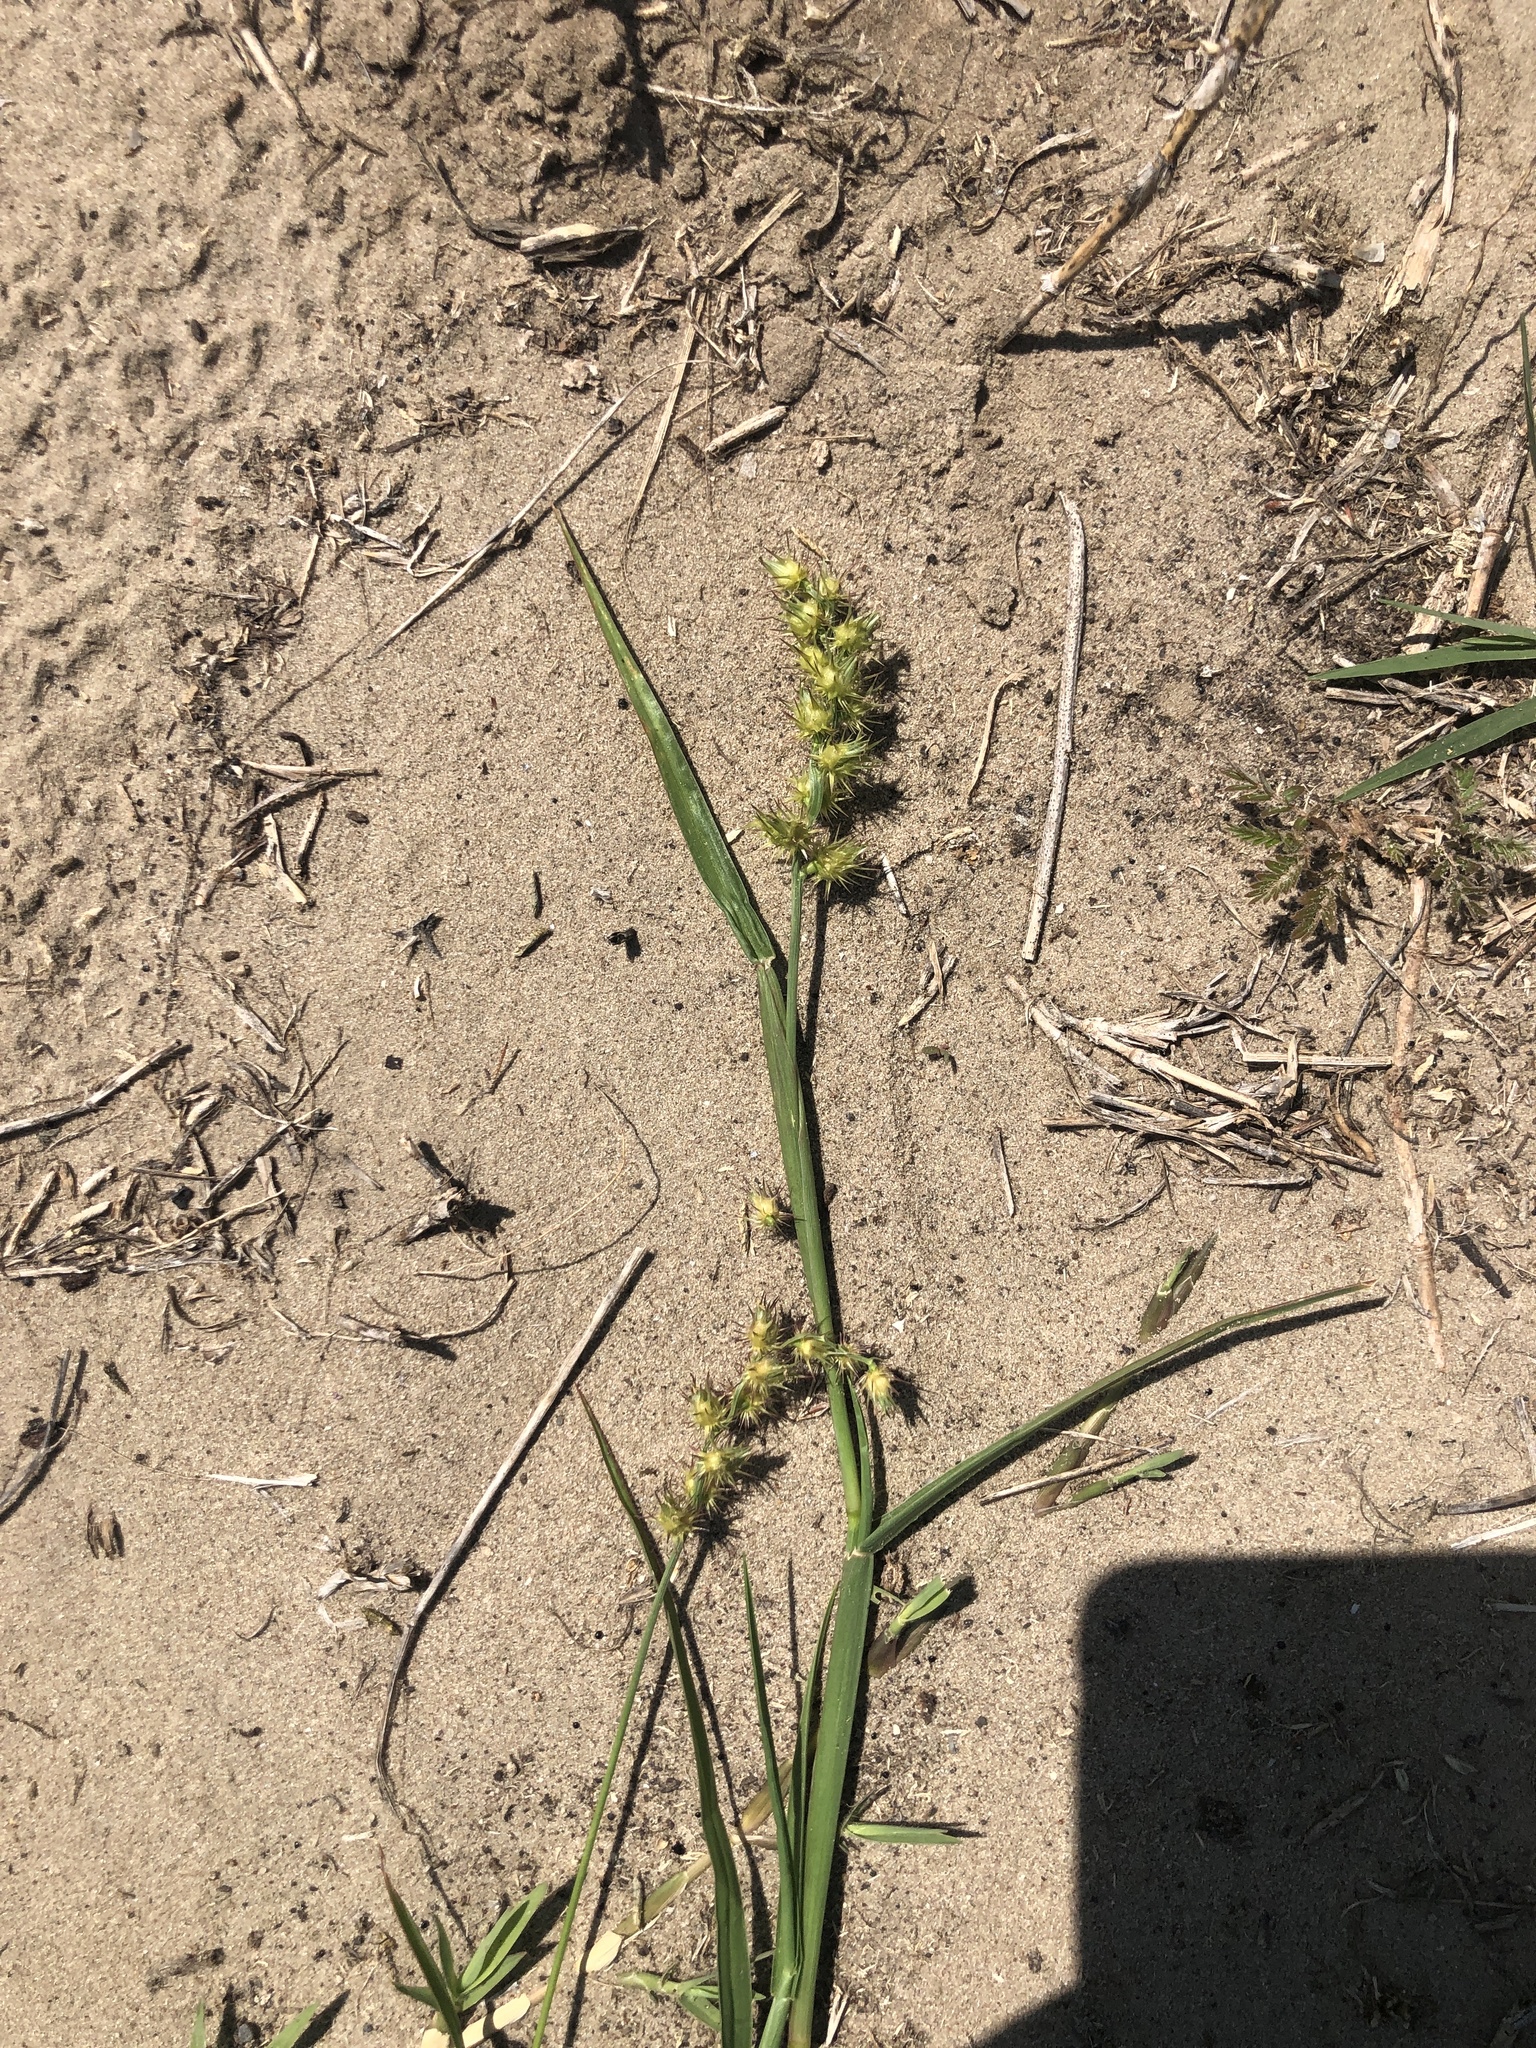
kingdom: Plantae
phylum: Tracheophyta
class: Liliopsida
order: Poales
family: Poaceae
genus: Cenchrus
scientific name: Cenchrus spinifex
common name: Coast sandbur
